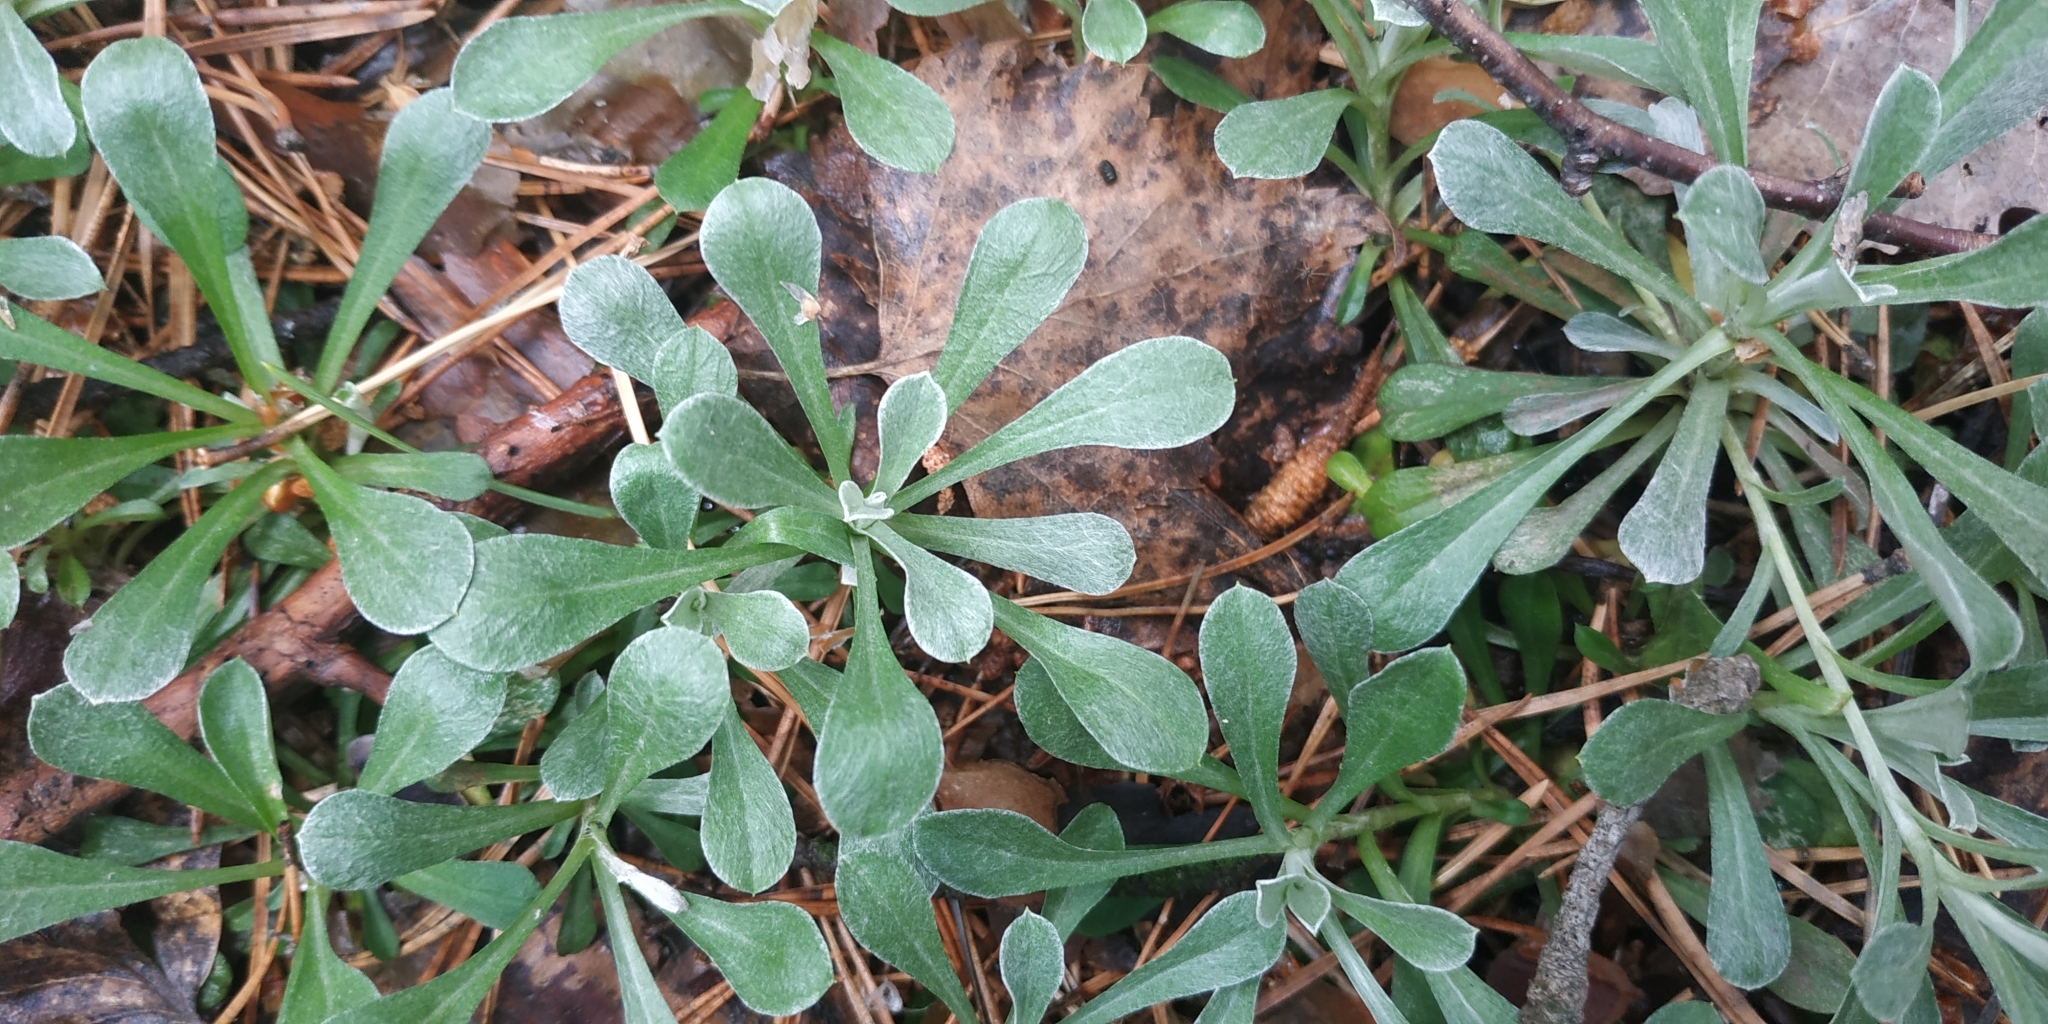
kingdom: Plantae
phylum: Tracheophyta
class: Magnoliopsida
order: Asterales
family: Asteraceae
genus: Antennaria
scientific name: Antennaria dioica
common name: Mountain everlasting
